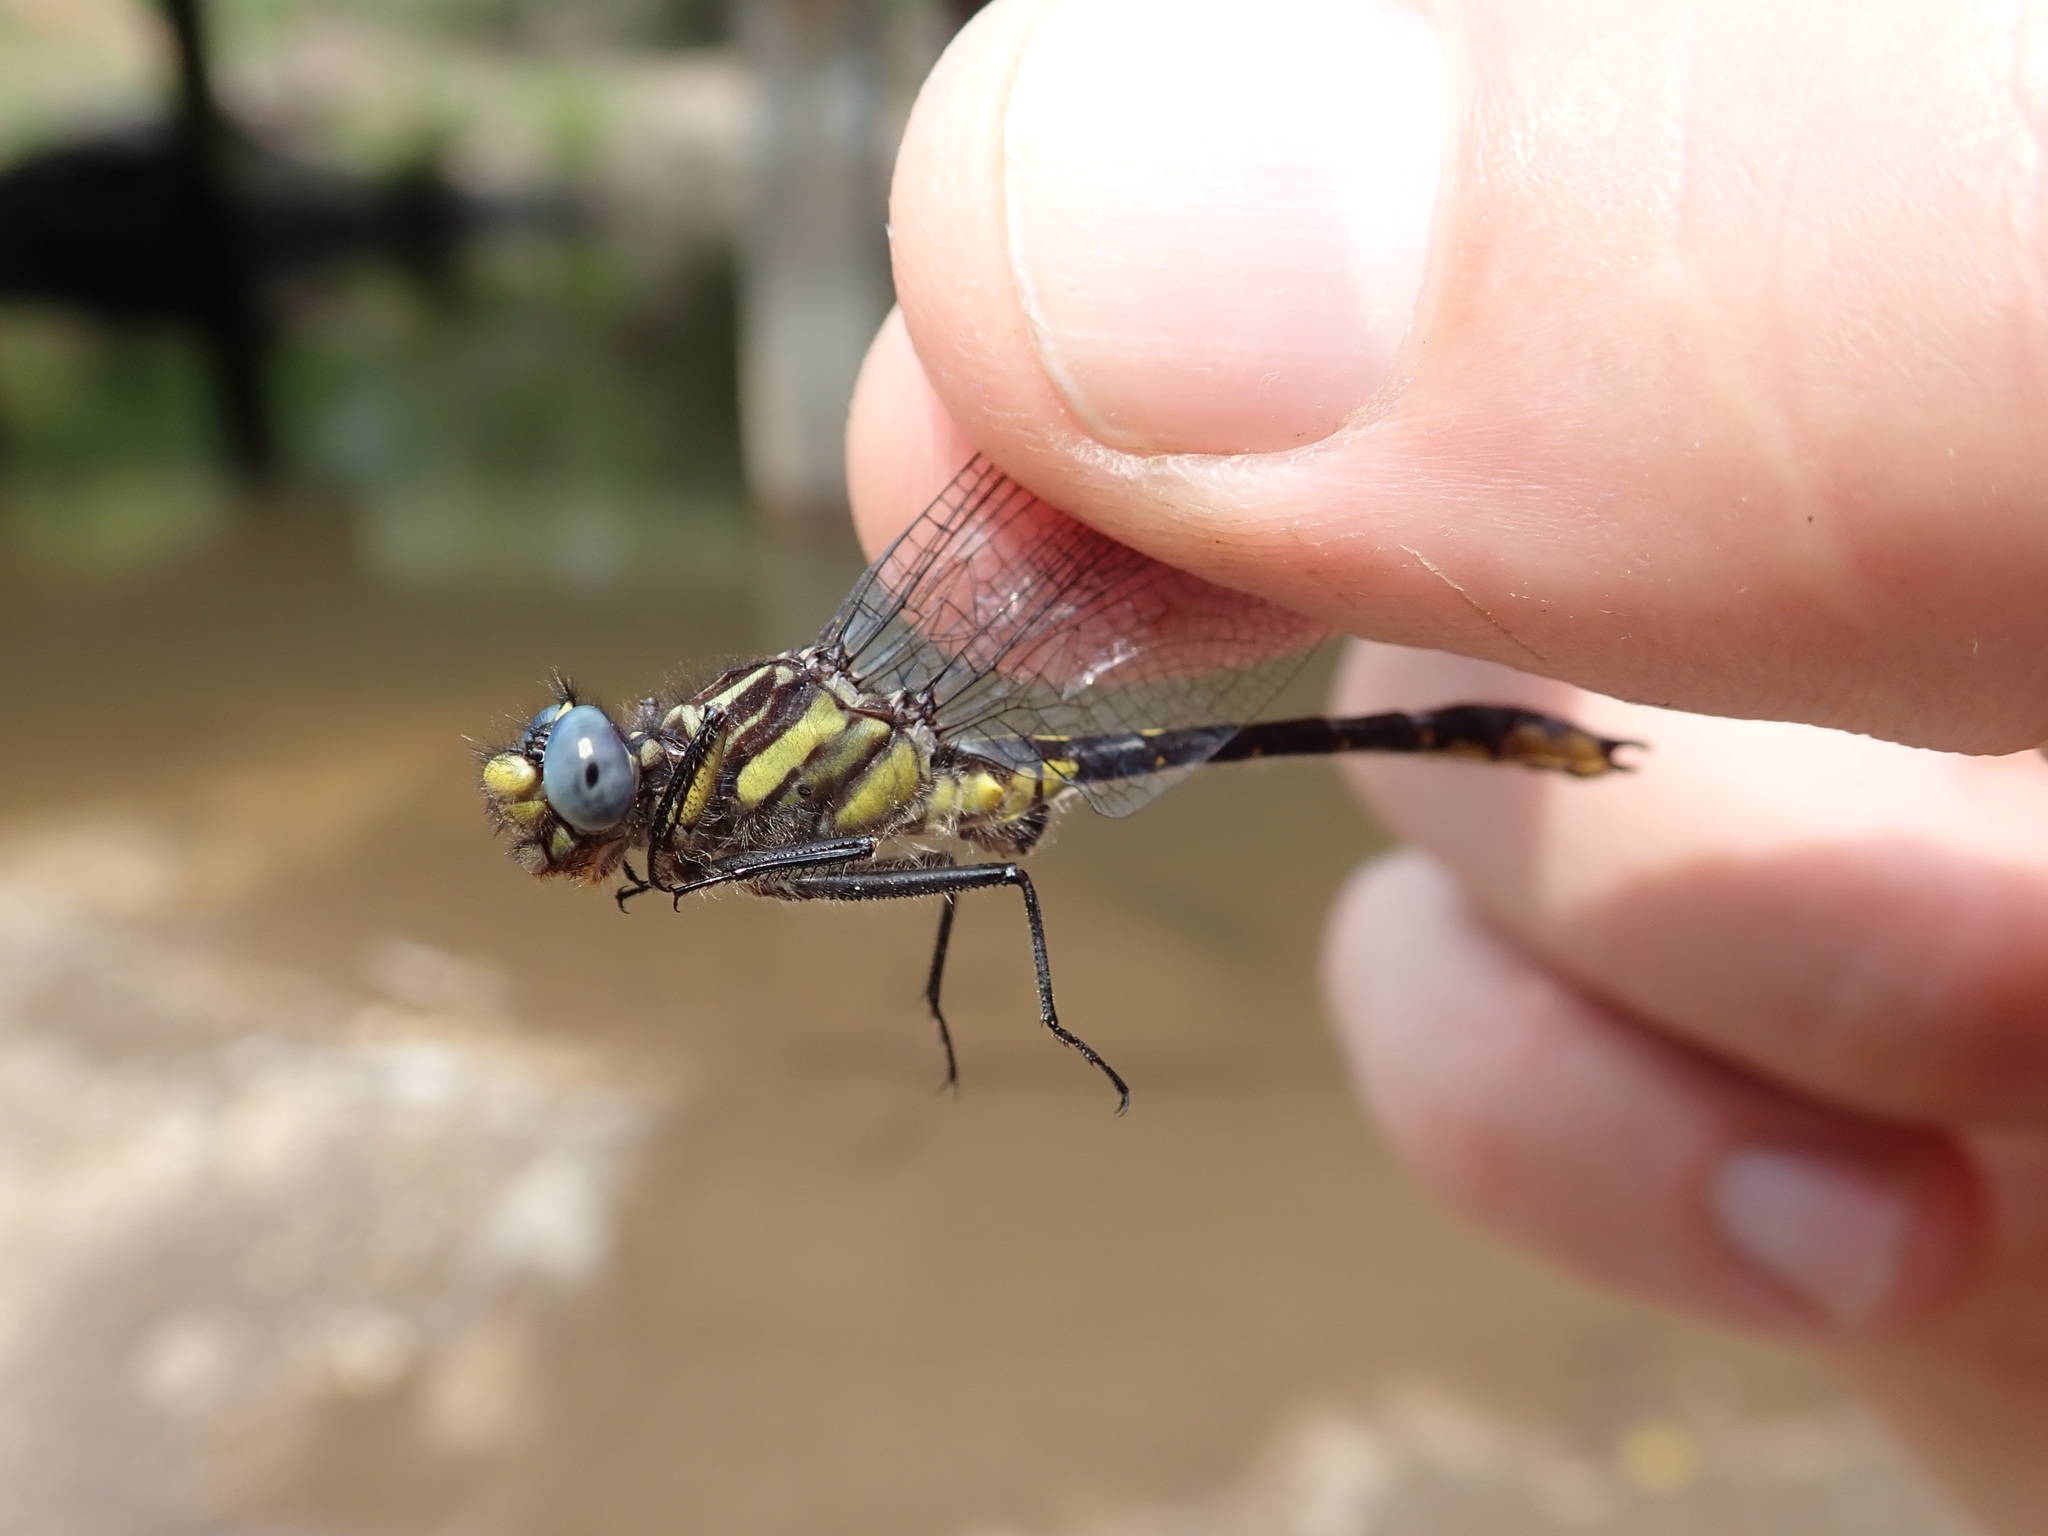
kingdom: Animalia
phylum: Arthropoda
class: Insecta
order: Odonata
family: Gomphidae
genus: Hylogomphus
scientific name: Hylogomphus apomyius
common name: Banner clubtail
